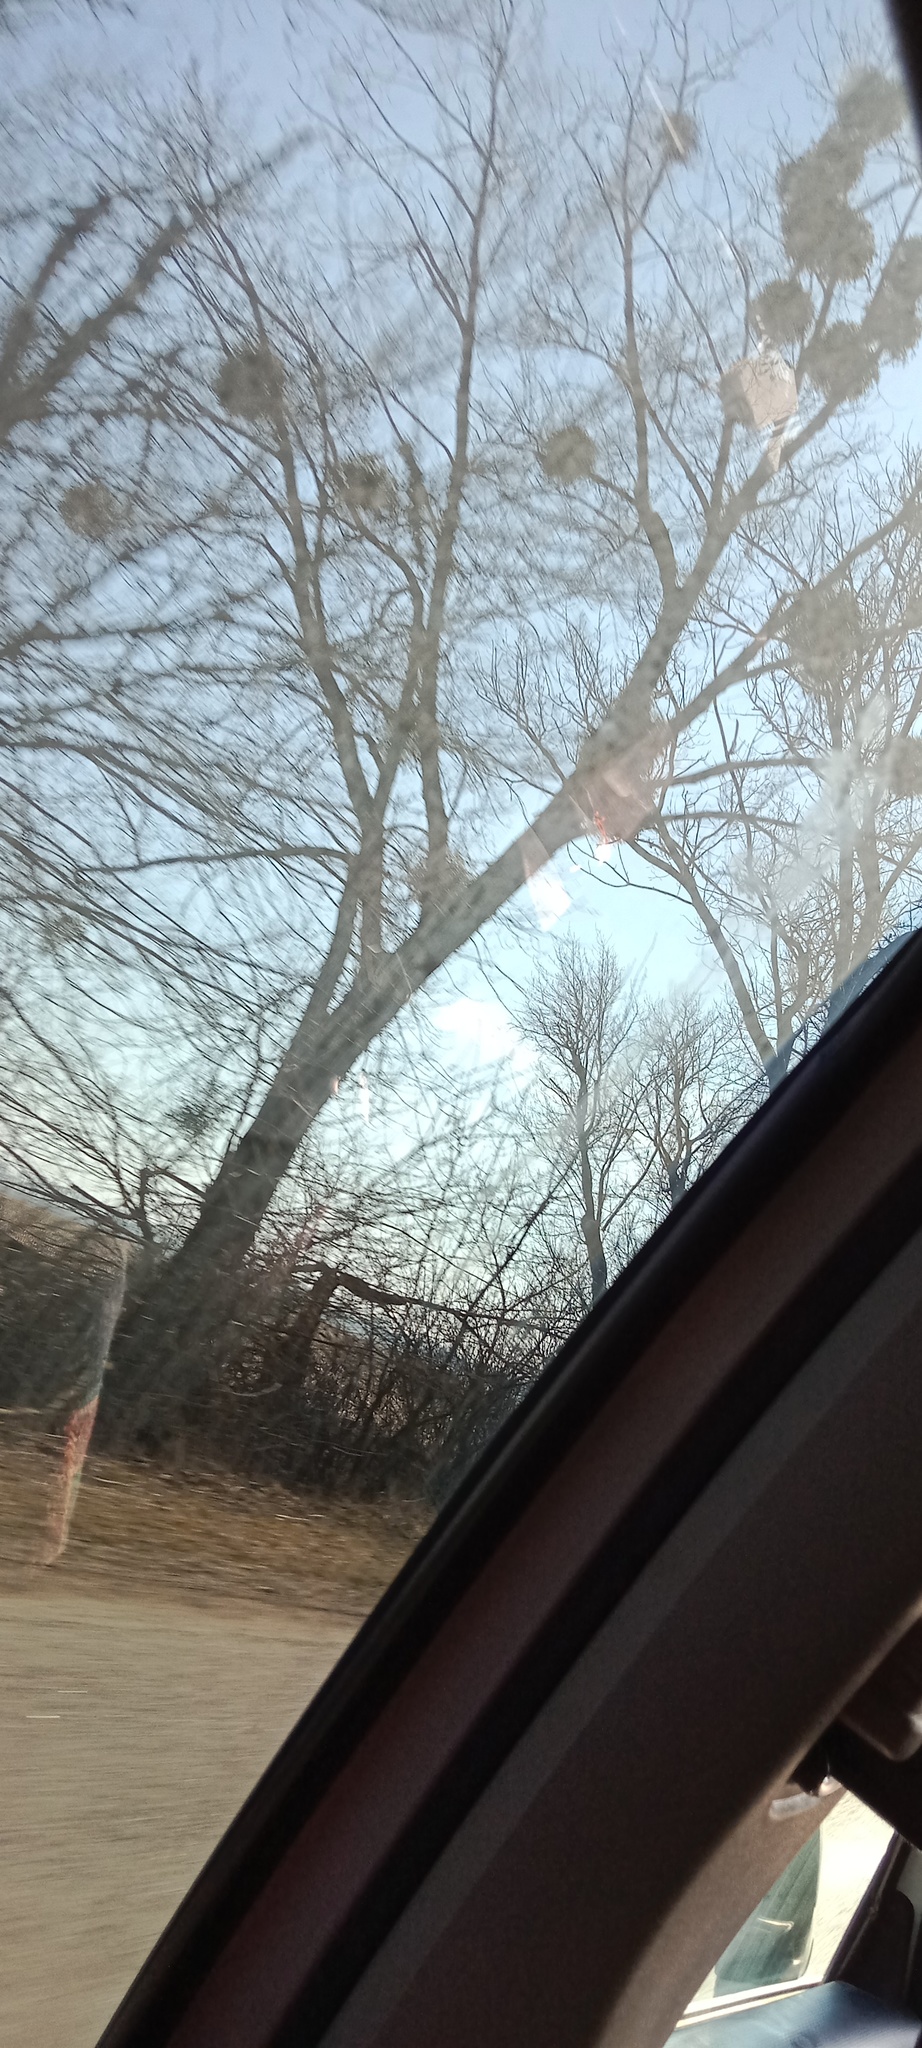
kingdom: Plantae
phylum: Tracheophyta
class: Magnoliopsida
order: Santalales
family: Viscaceae
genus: Viscum
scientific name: Viscum album
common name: Mistletoe
